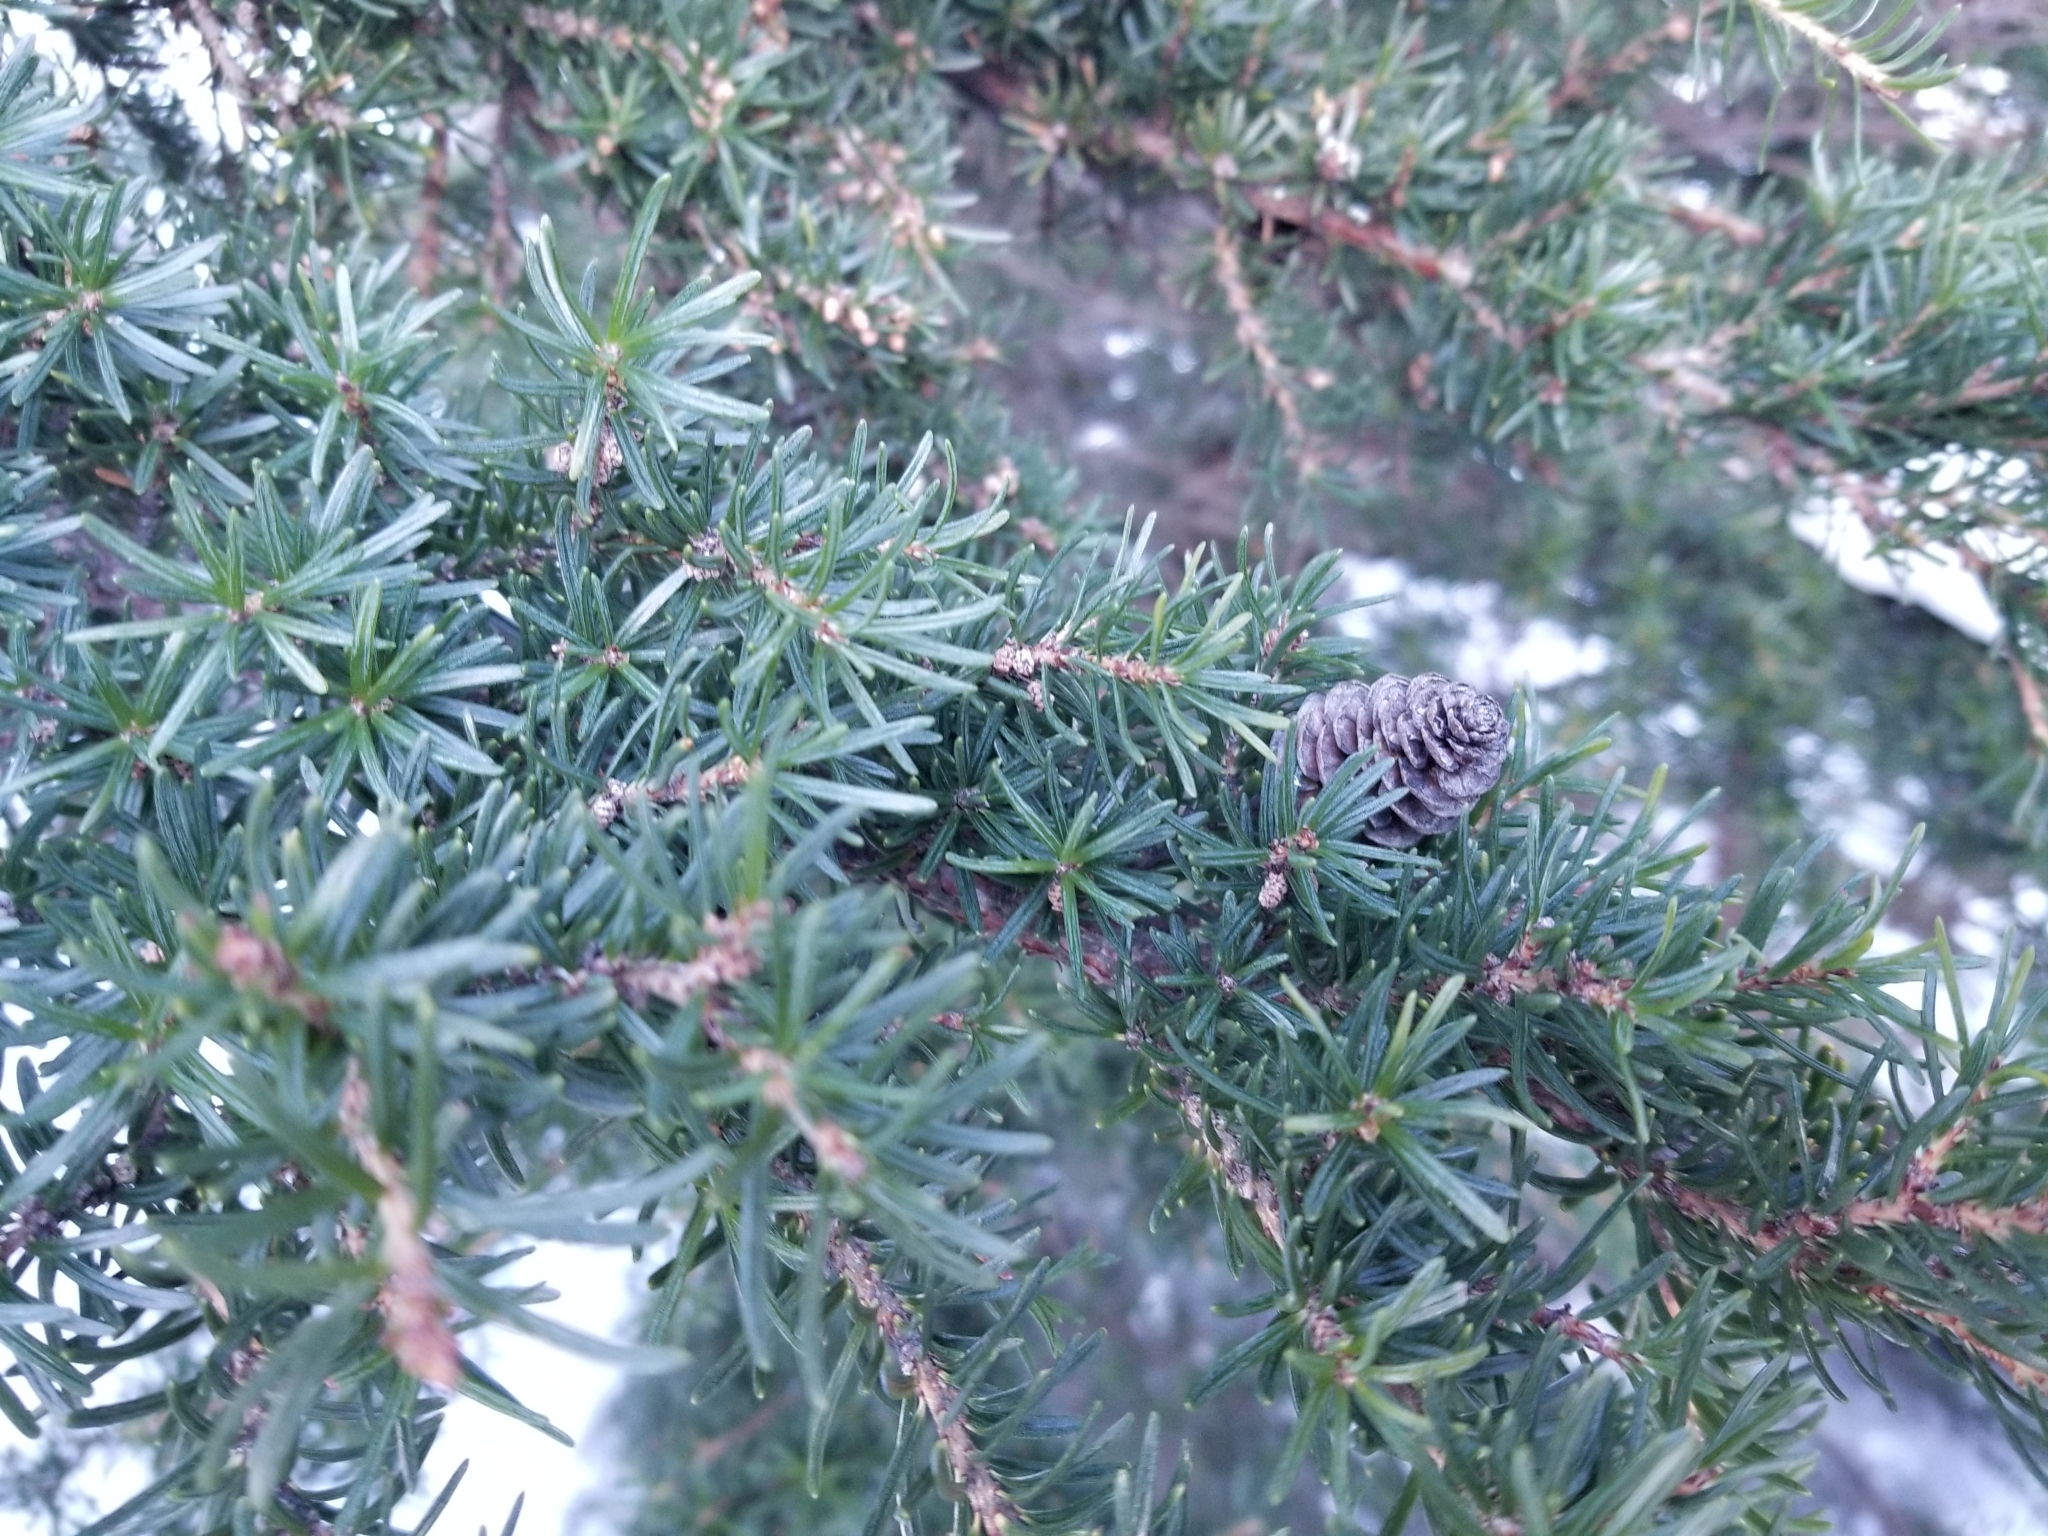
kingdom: Plantae
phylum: Tracheophyta
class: Pinopsida
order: Pinales
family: Pinaceae
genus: Tsuga
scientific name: Tsuga mertensiana
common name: Mountain hemlock
